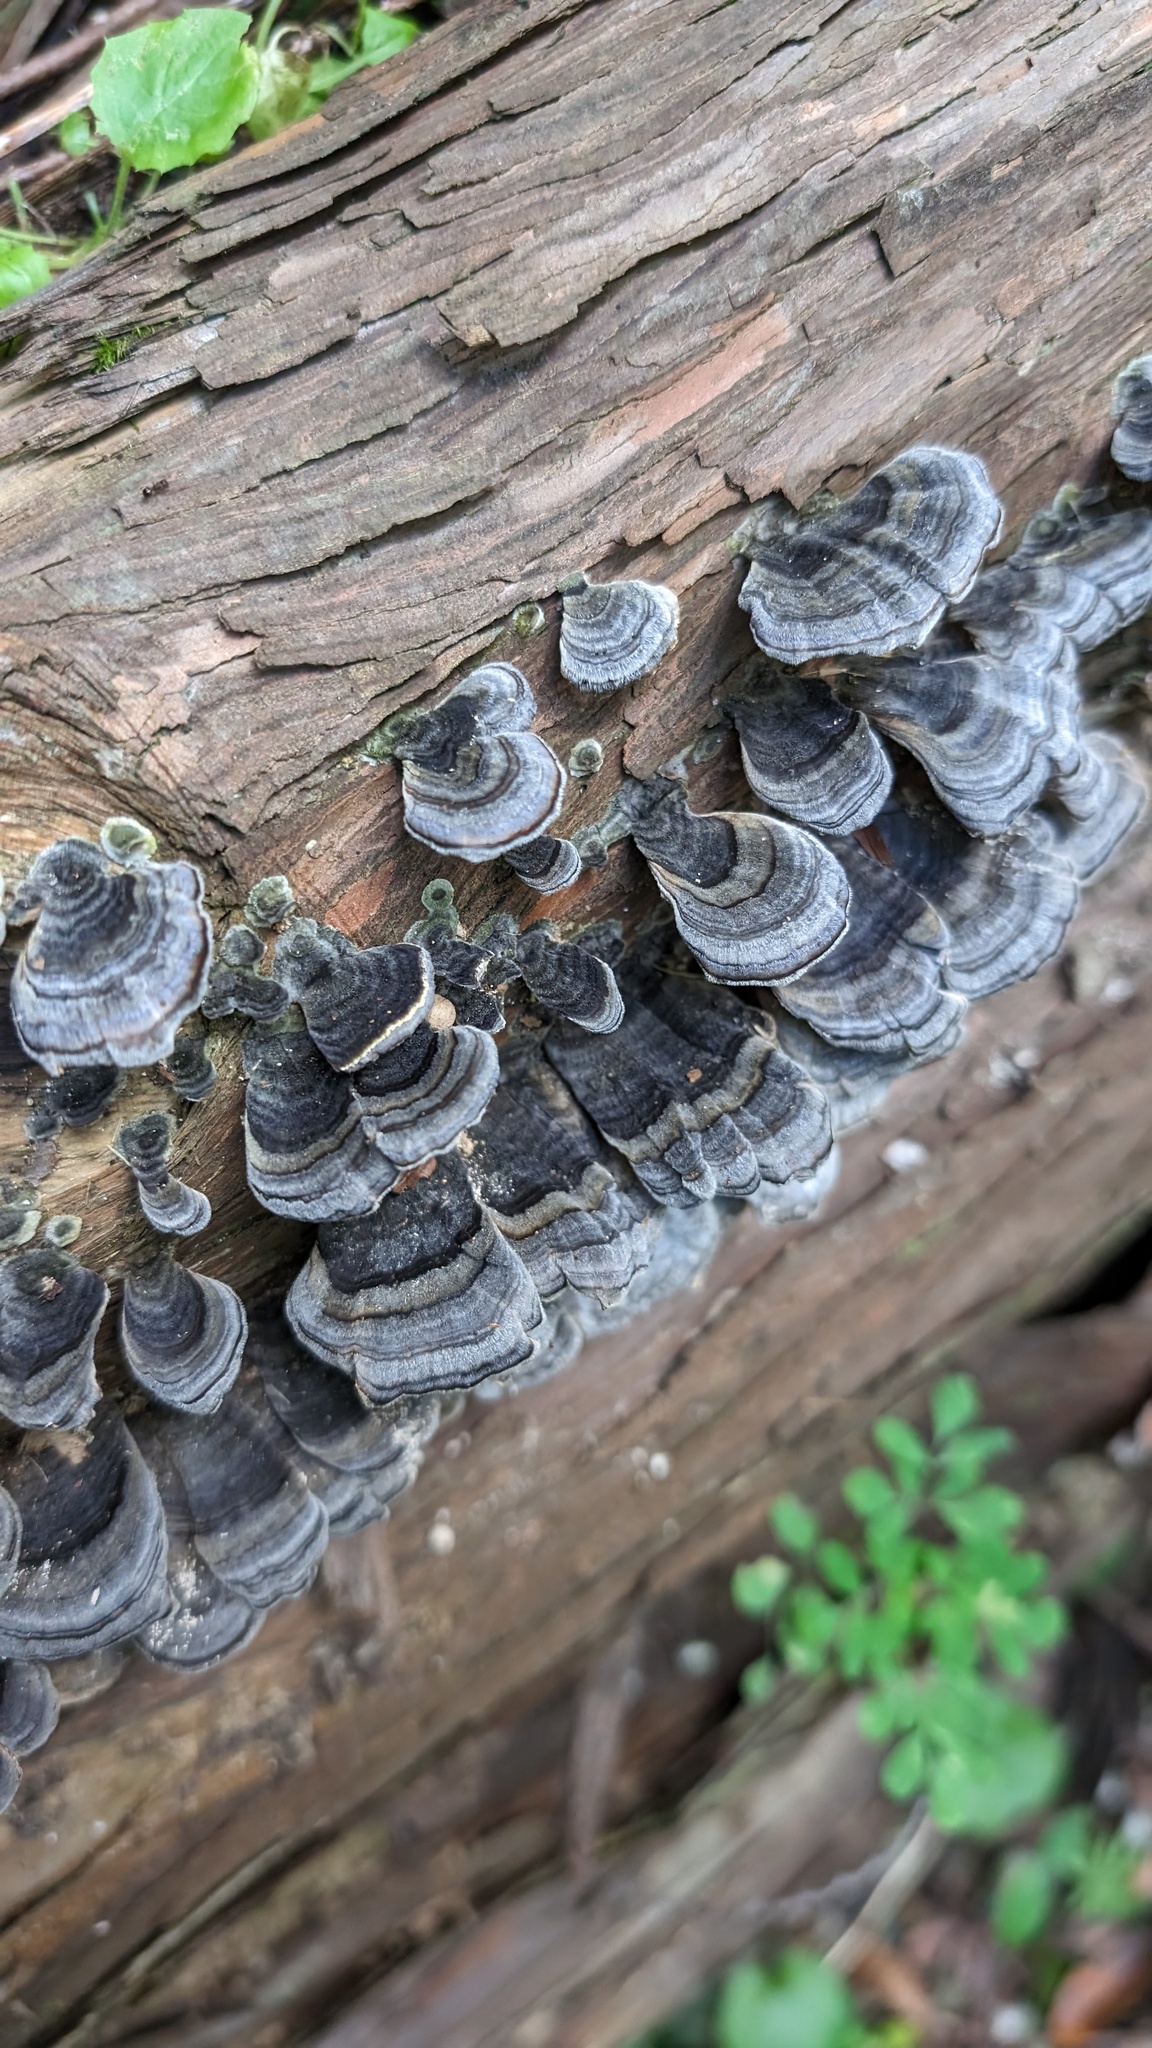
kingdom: Fungi
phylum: Basidiomycota
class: Agaricomycetes
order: Polyporales
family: Polyporaceae
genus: Trametes
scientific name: Trametes versicolor
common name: Turkeytail
